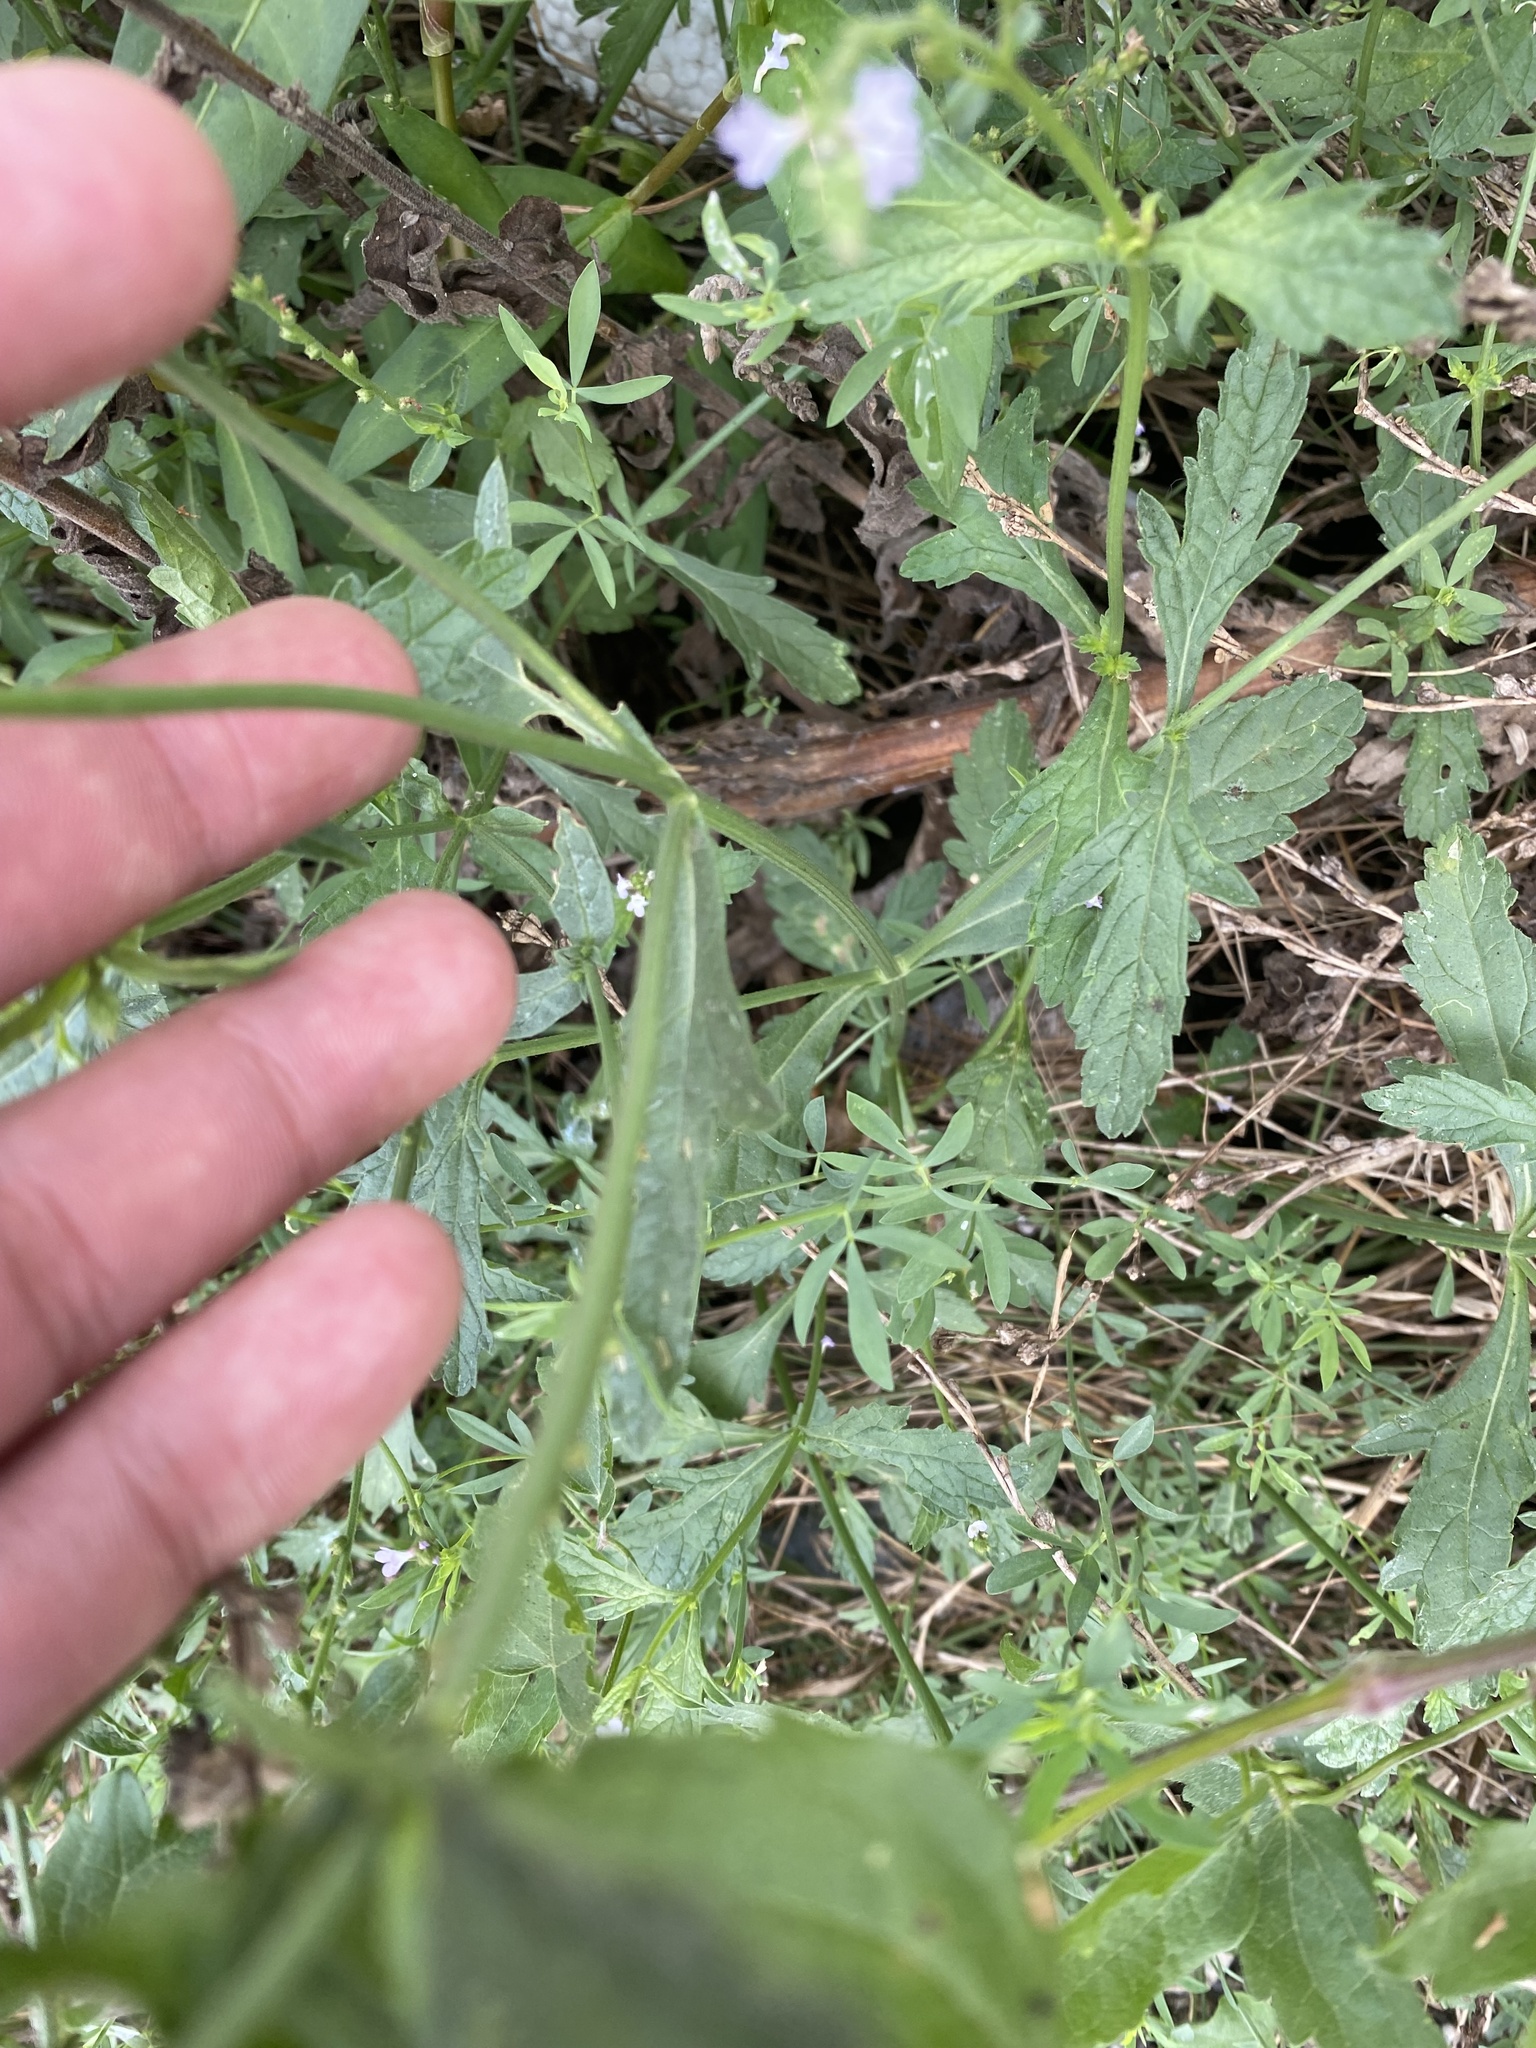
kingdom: Plantae
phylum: Tracheophyta
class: Magnoliopsida
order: Lamiales
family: Verbenaceae
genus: Verbena
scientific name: Verbena officinalis
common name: Vervain
